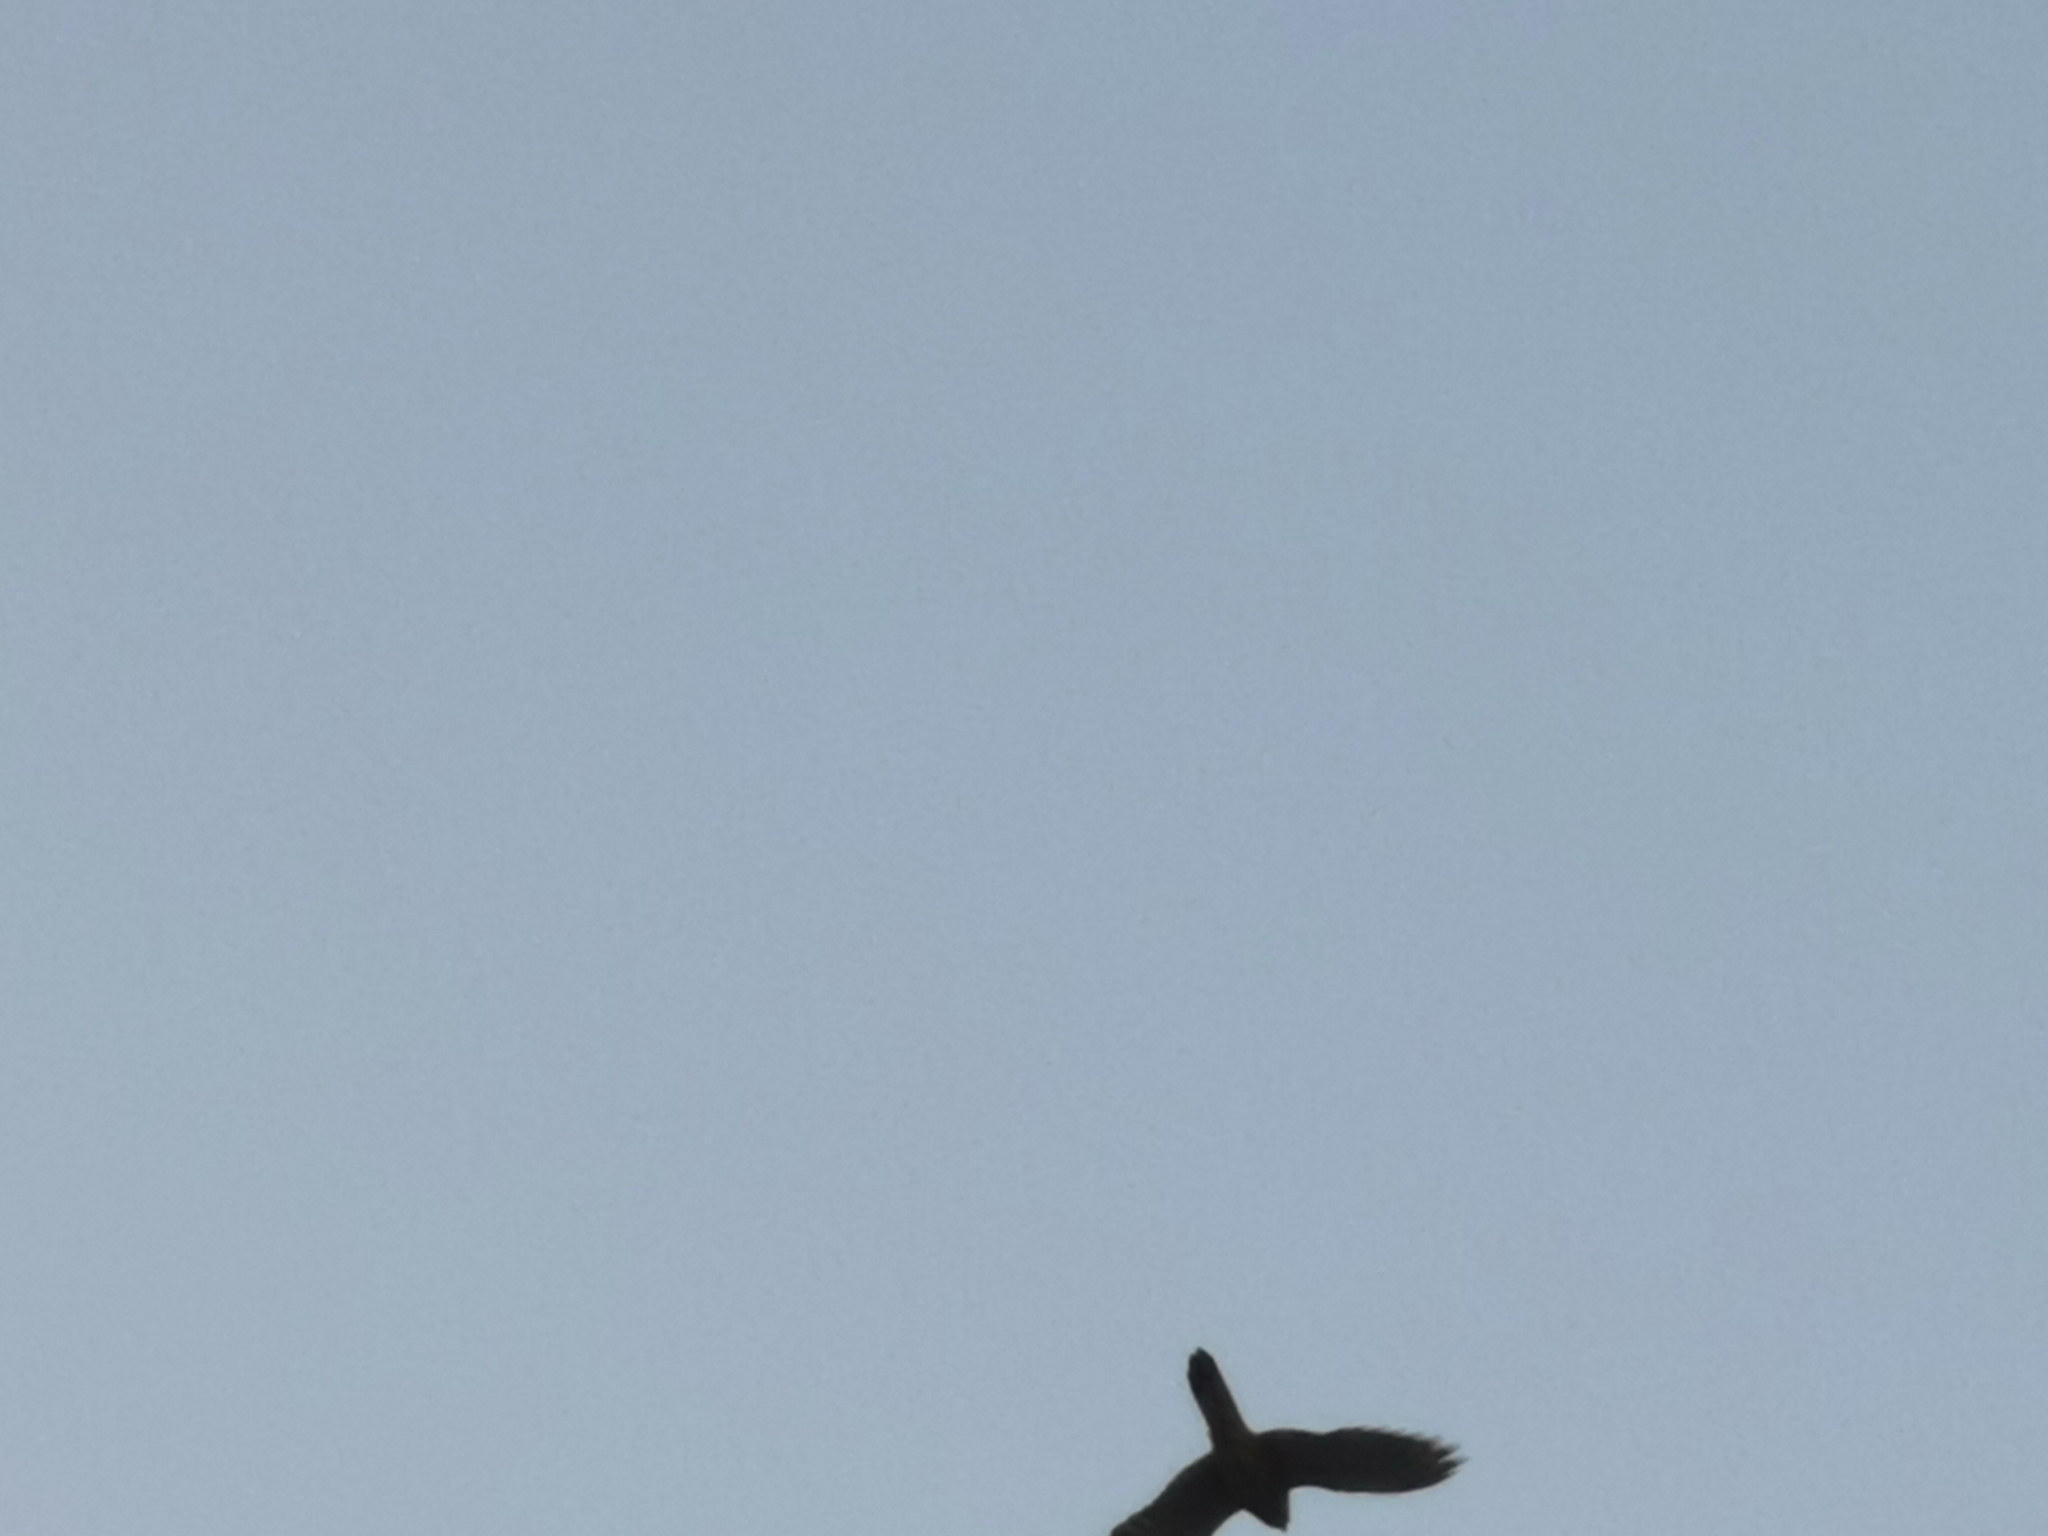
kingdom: Animalia
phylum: Chordata
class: Aves
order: Falconiformes
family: Falconidae
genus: Falco
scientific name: Falco tinnunculus
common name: Common kestrel
